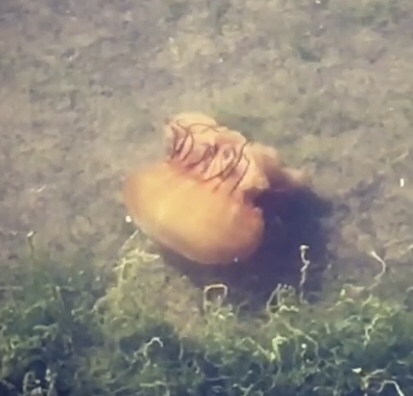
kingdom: Animalia
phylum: Cnidaria
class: Scyphozoa
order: Semaeostomeae
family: Pelagiidae
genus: Chrysaora
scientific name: Chrysaora fuscescens
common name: Sea nettle
